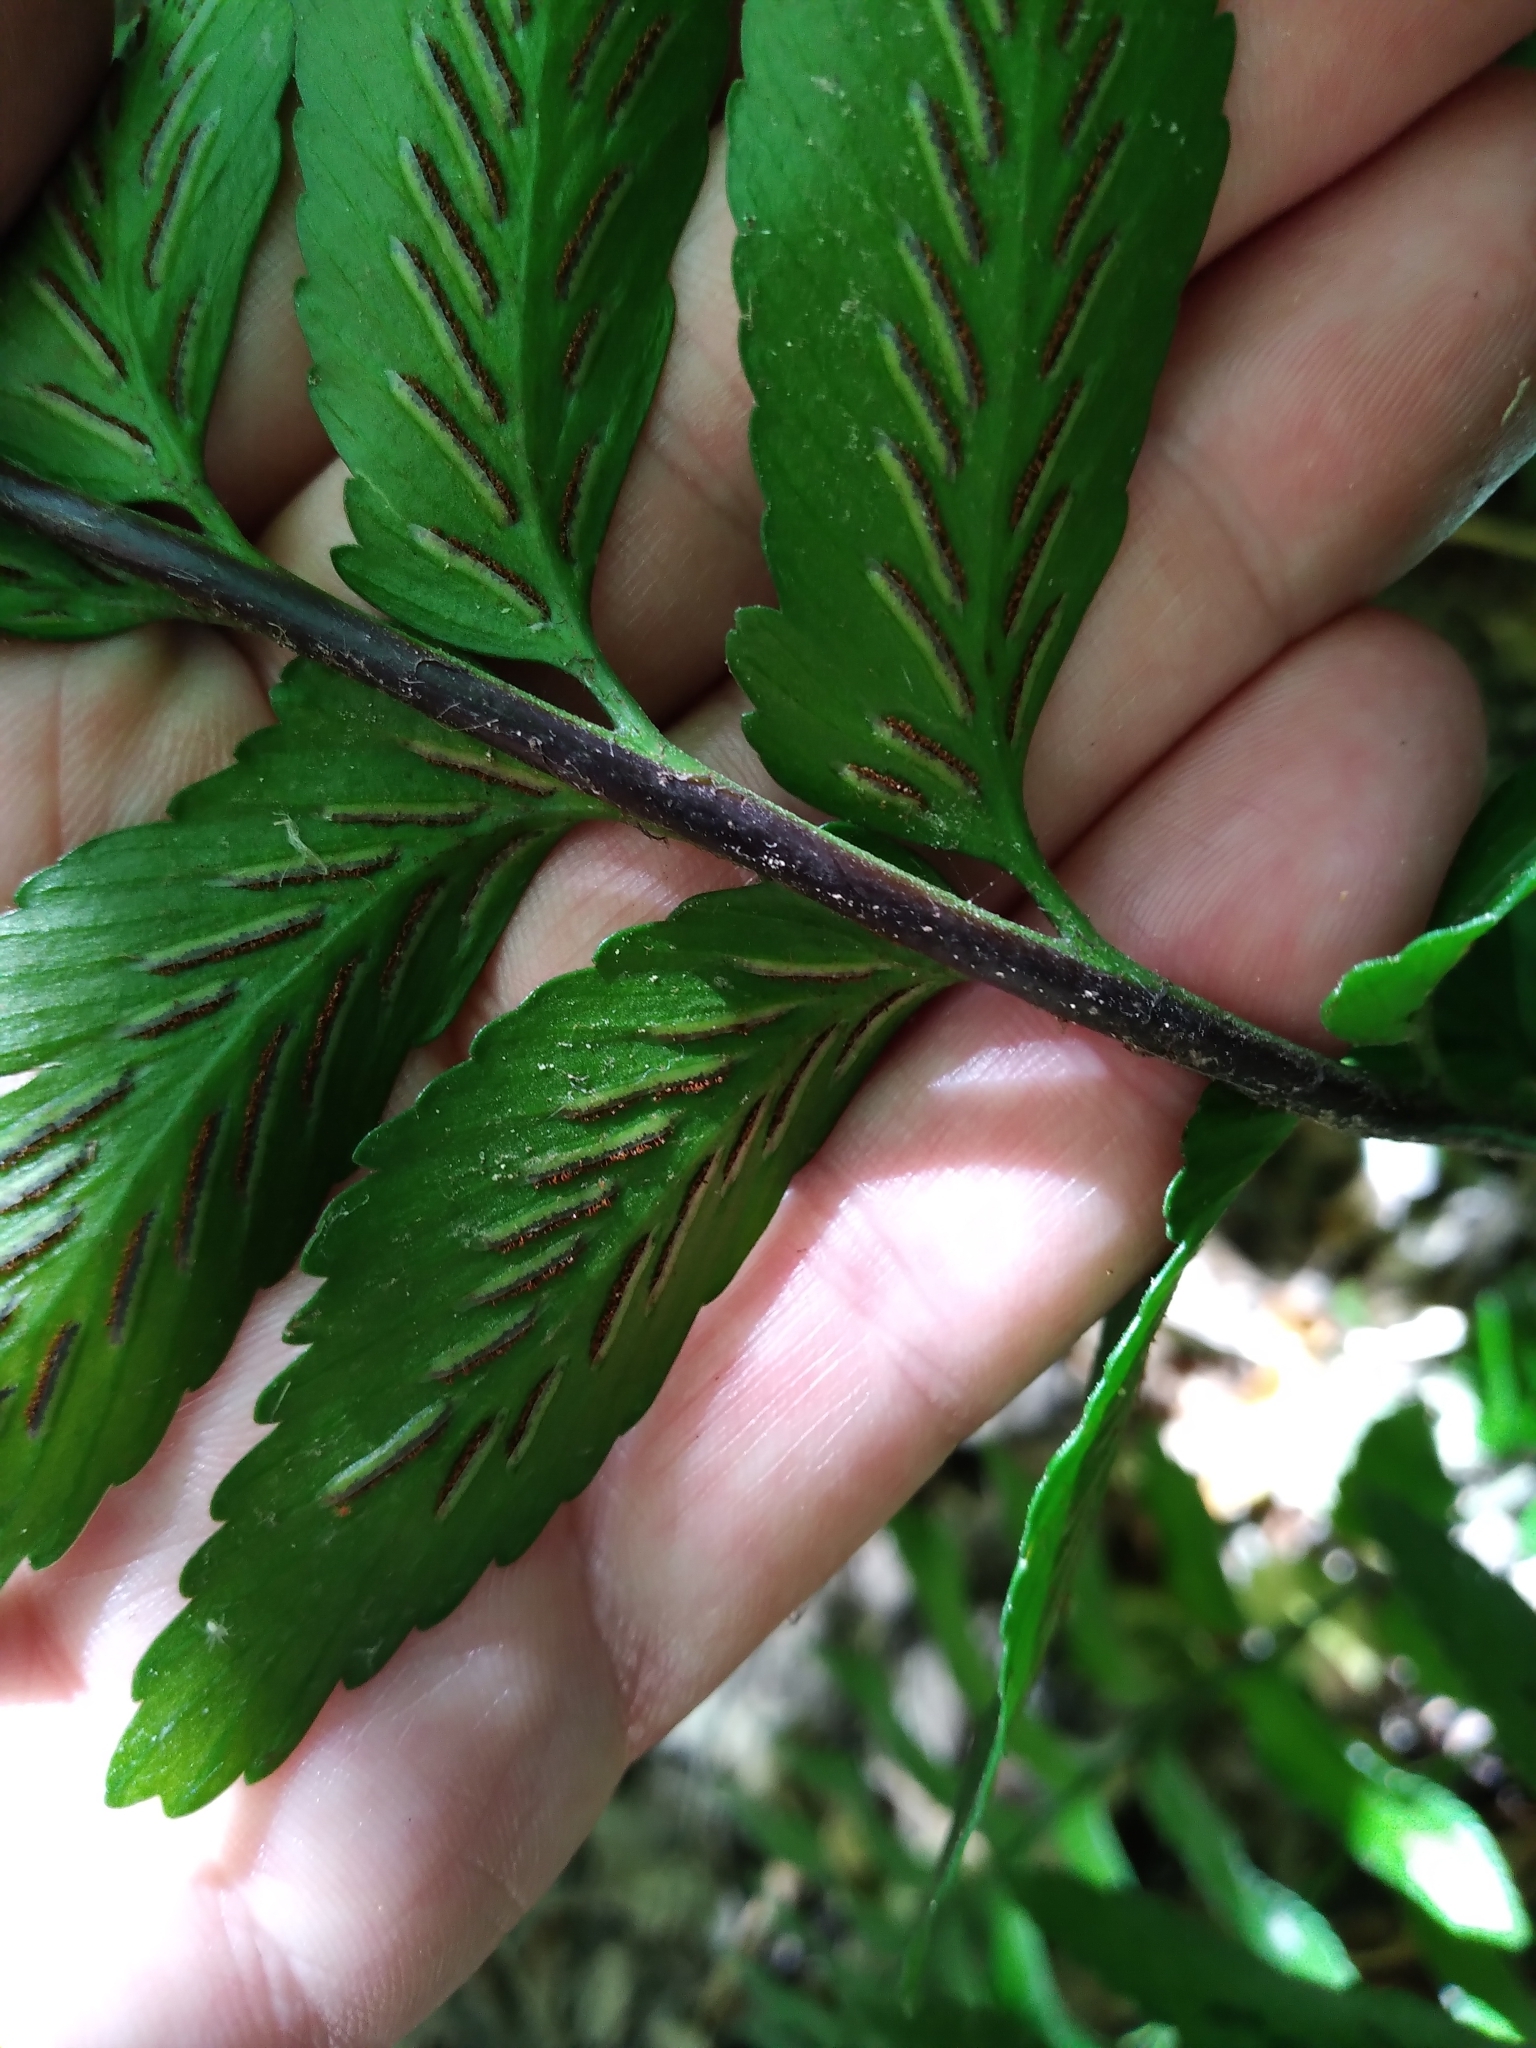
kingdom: Plantae
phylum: Tracheophyta
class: Polypodiopsida
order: Polypodiales
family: Aspleniaceae
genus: Asplenium
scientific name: Asplenium lyallii
